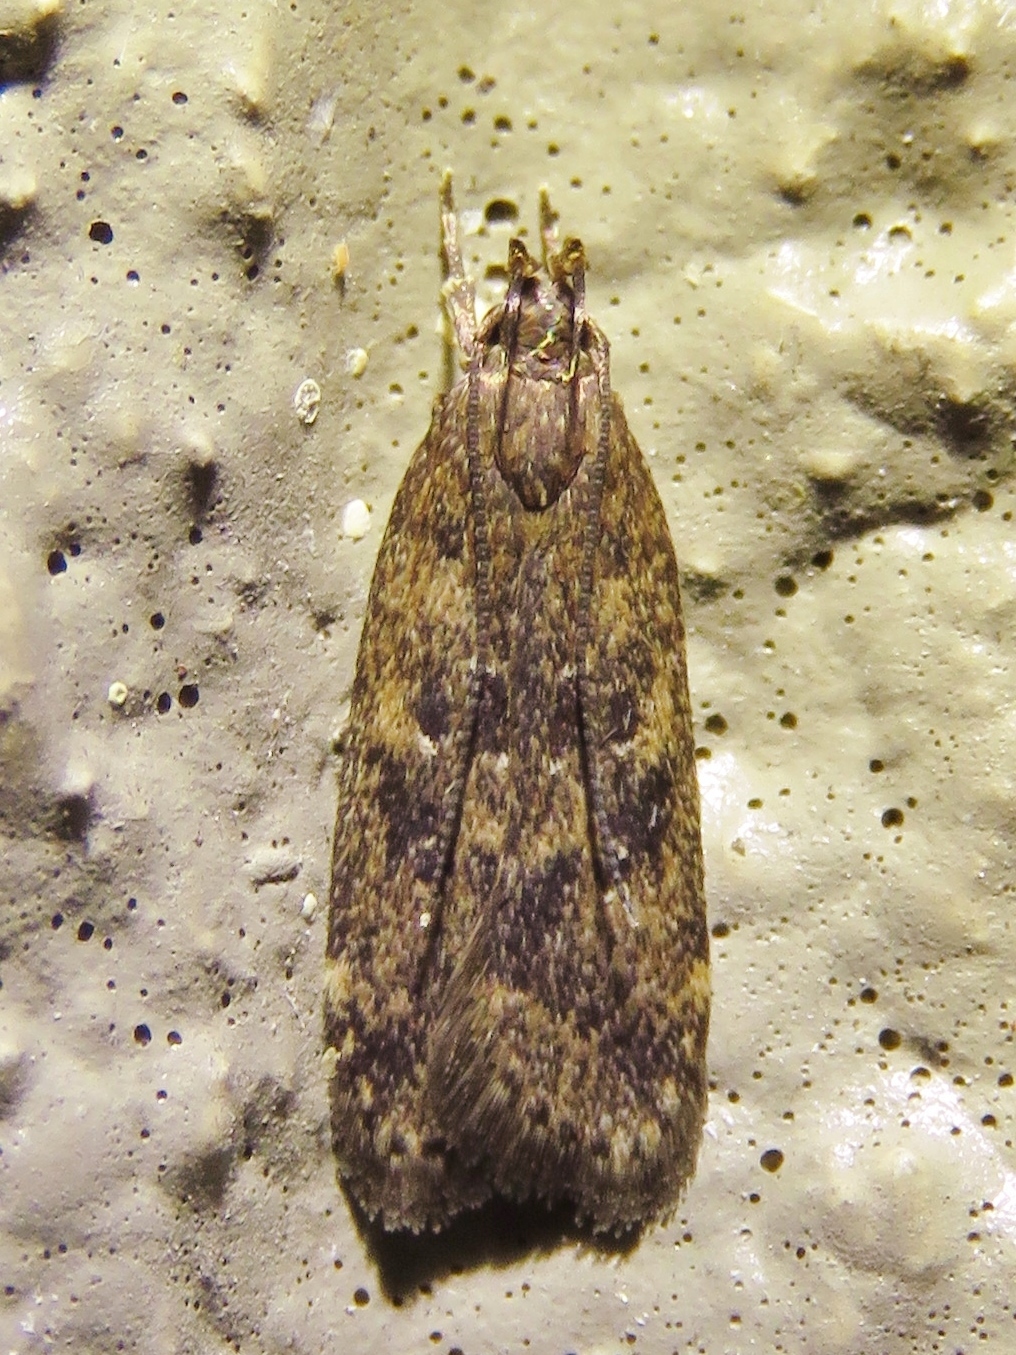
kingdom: Animalia
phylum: Arthropoda
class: Insecta
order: Lepidoptera
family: Gelechiidae
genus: Helcystogramma
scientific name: Helcystogramma melantherella
